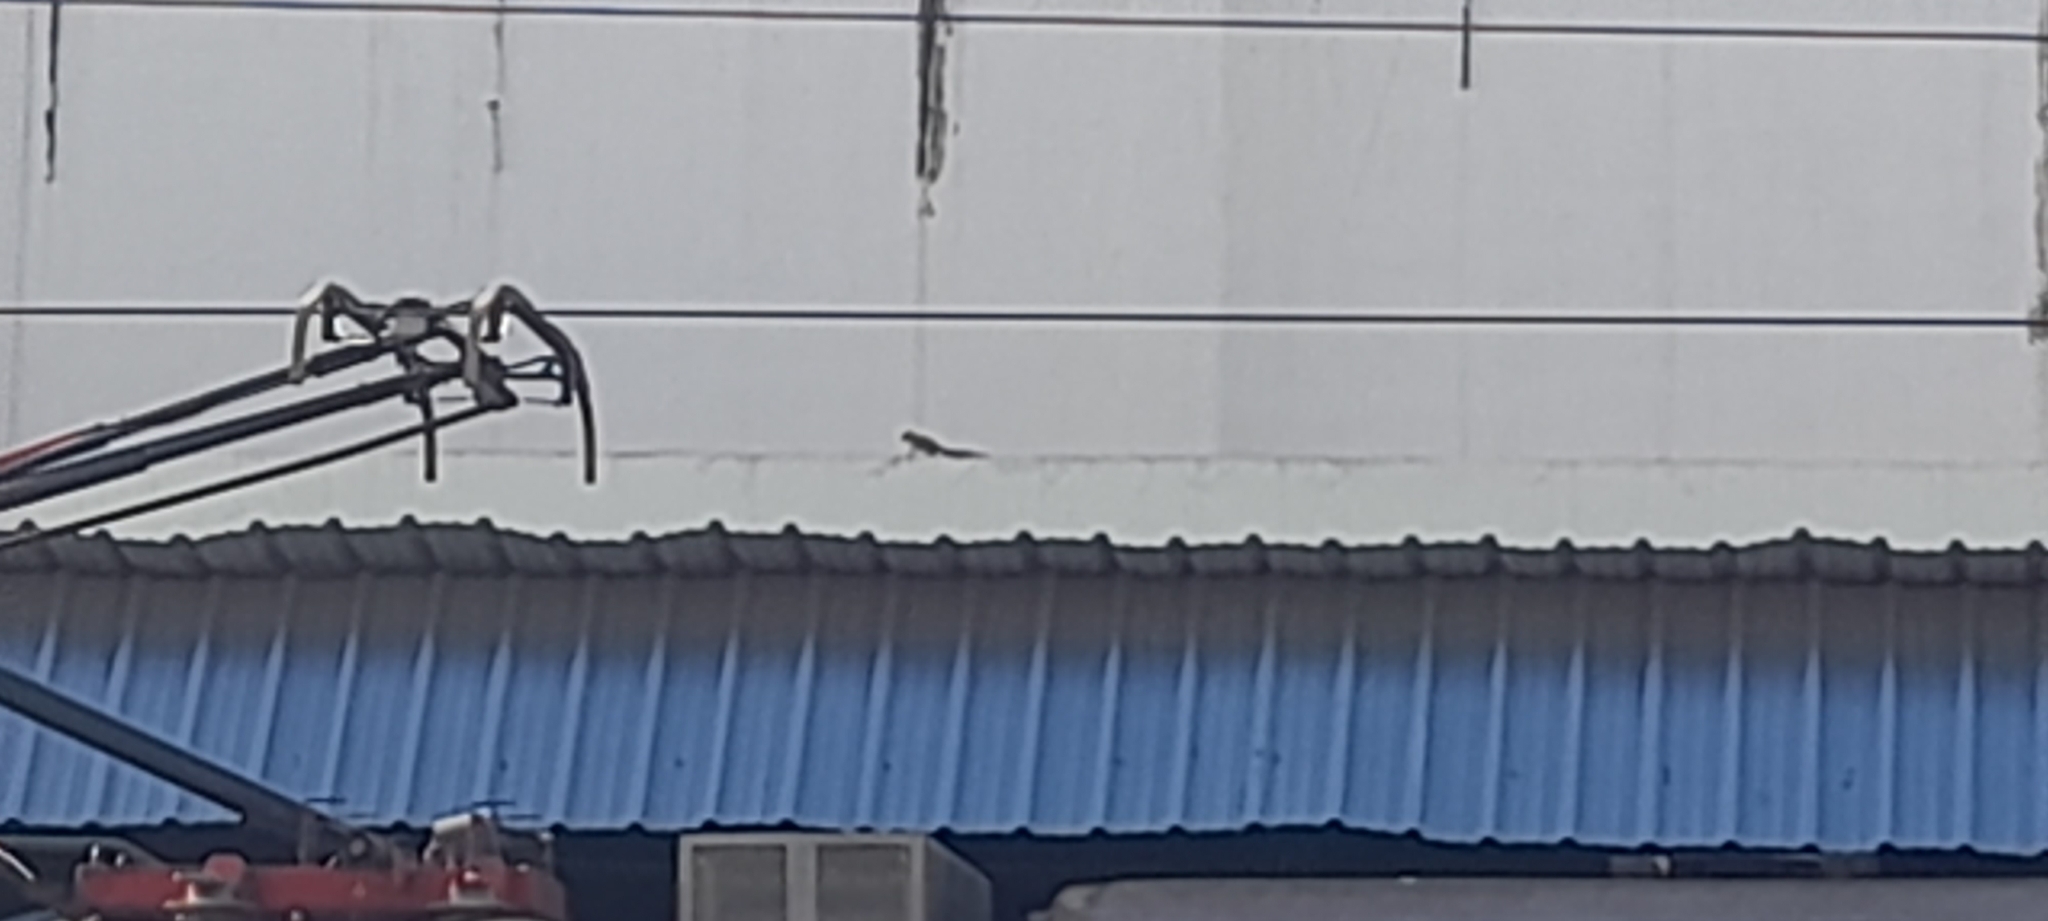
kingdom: Animalia
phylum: Chordata
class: Mammalia
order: Rodentia
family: Sciuridae
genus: Funambulus
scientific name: Funambulus palmarum
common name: Indian palm squirrel
